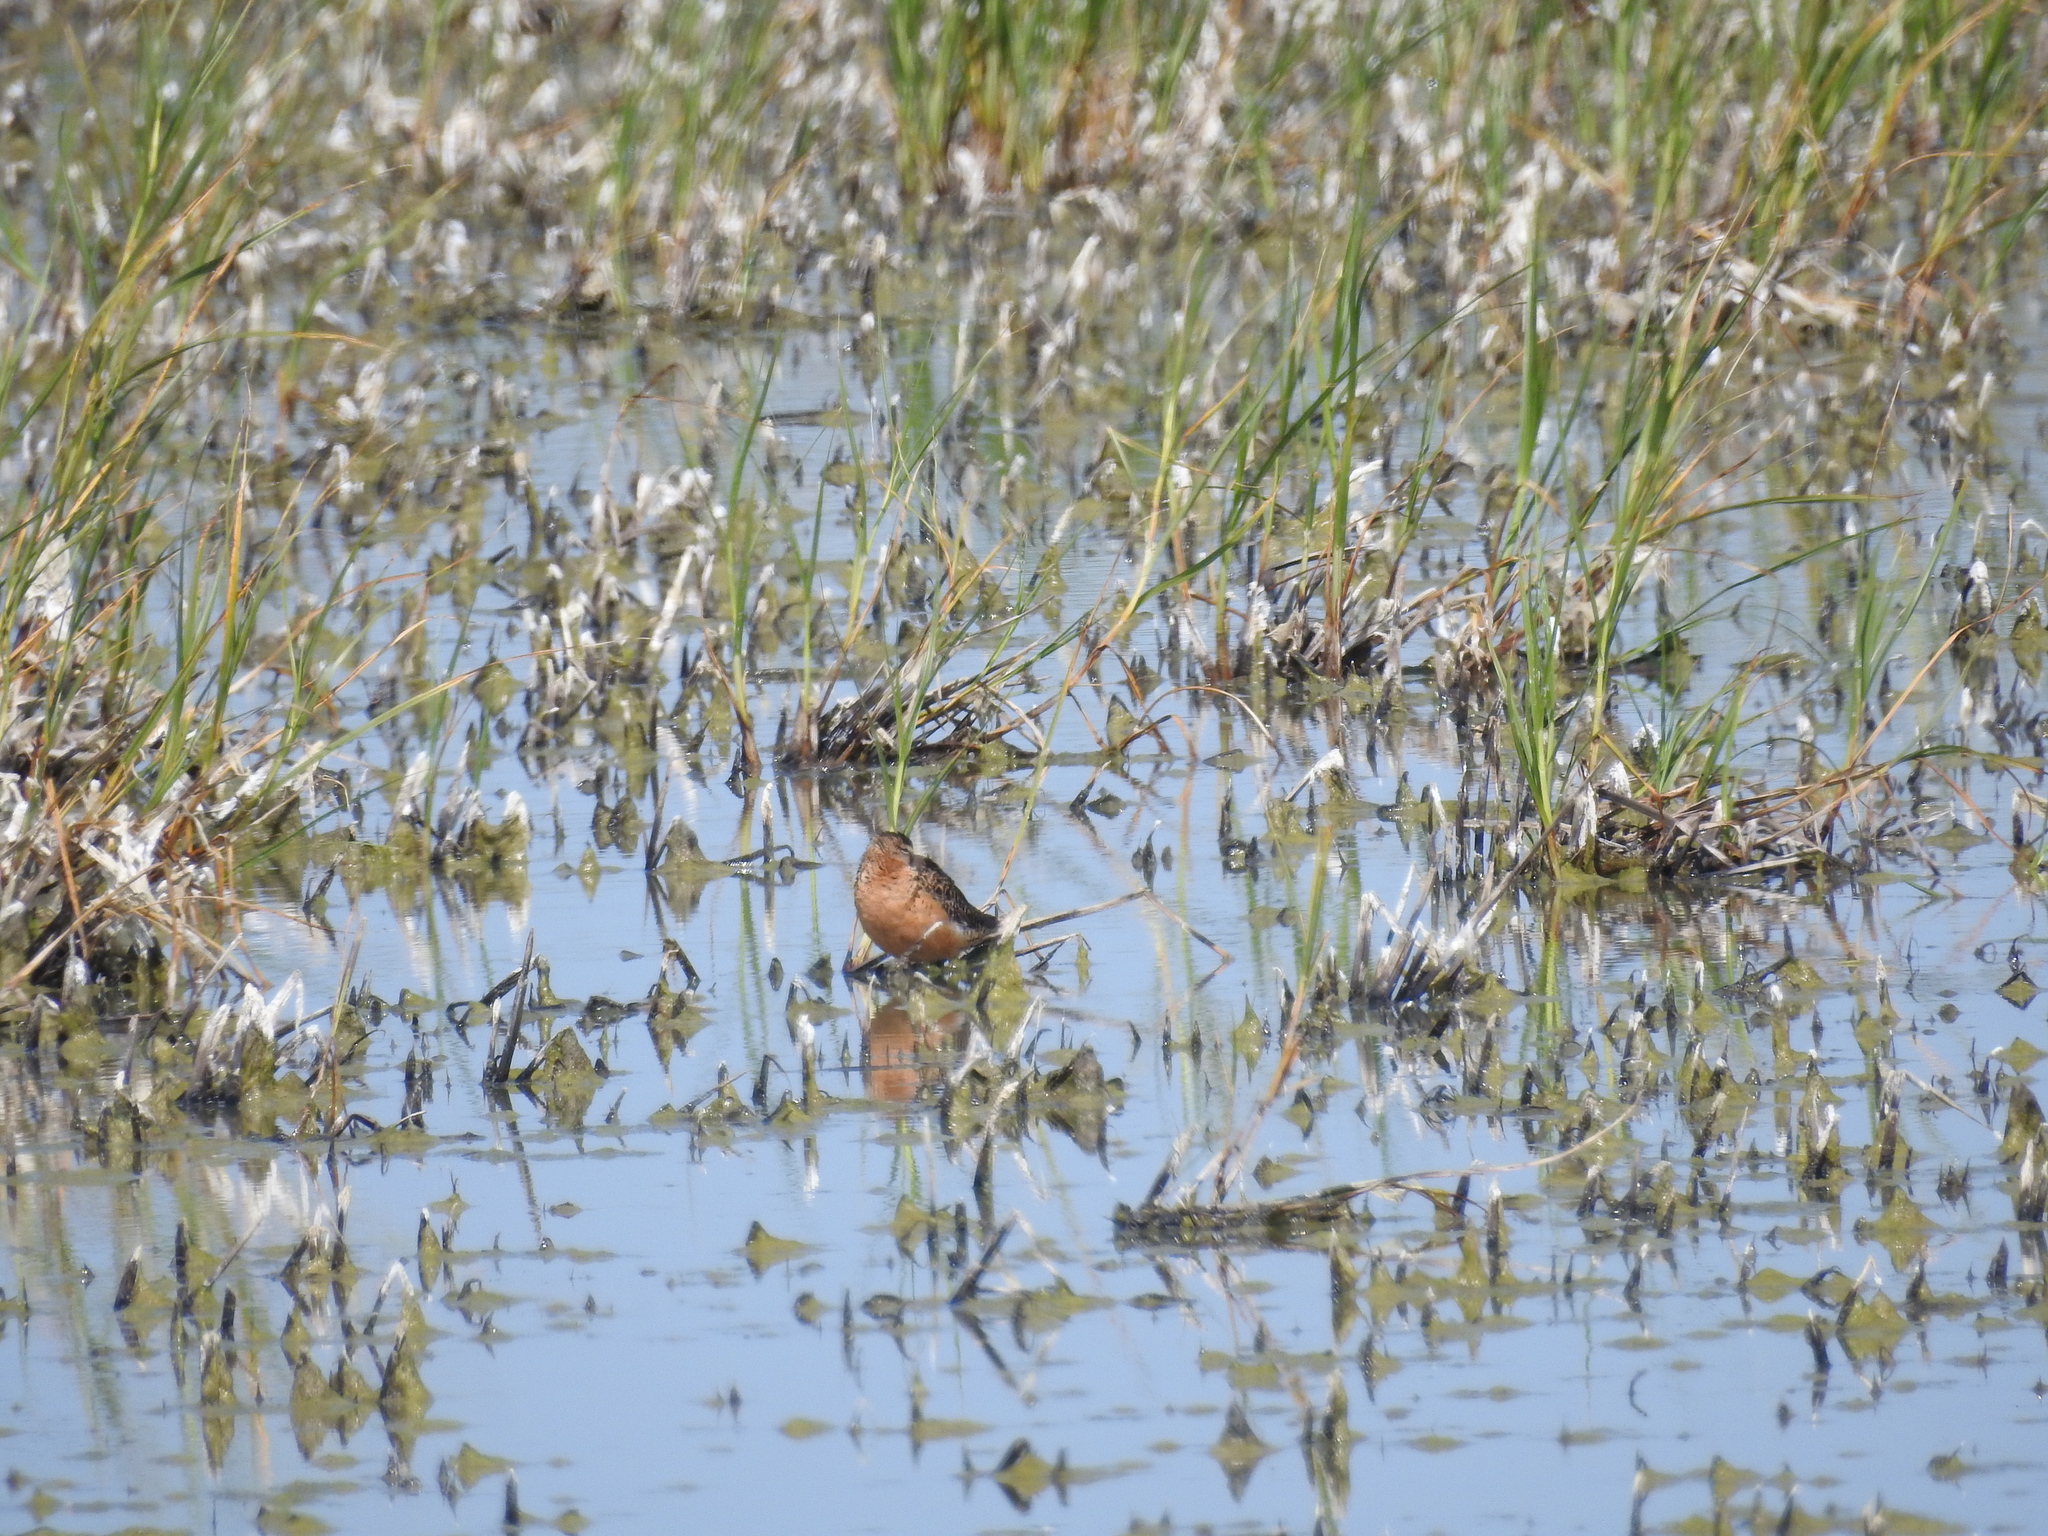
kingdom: Animalia
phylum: Chordata
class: Aves
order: Charadriiformes
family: Scolopacidae
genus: Limnodromus
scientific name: Limnodromus
